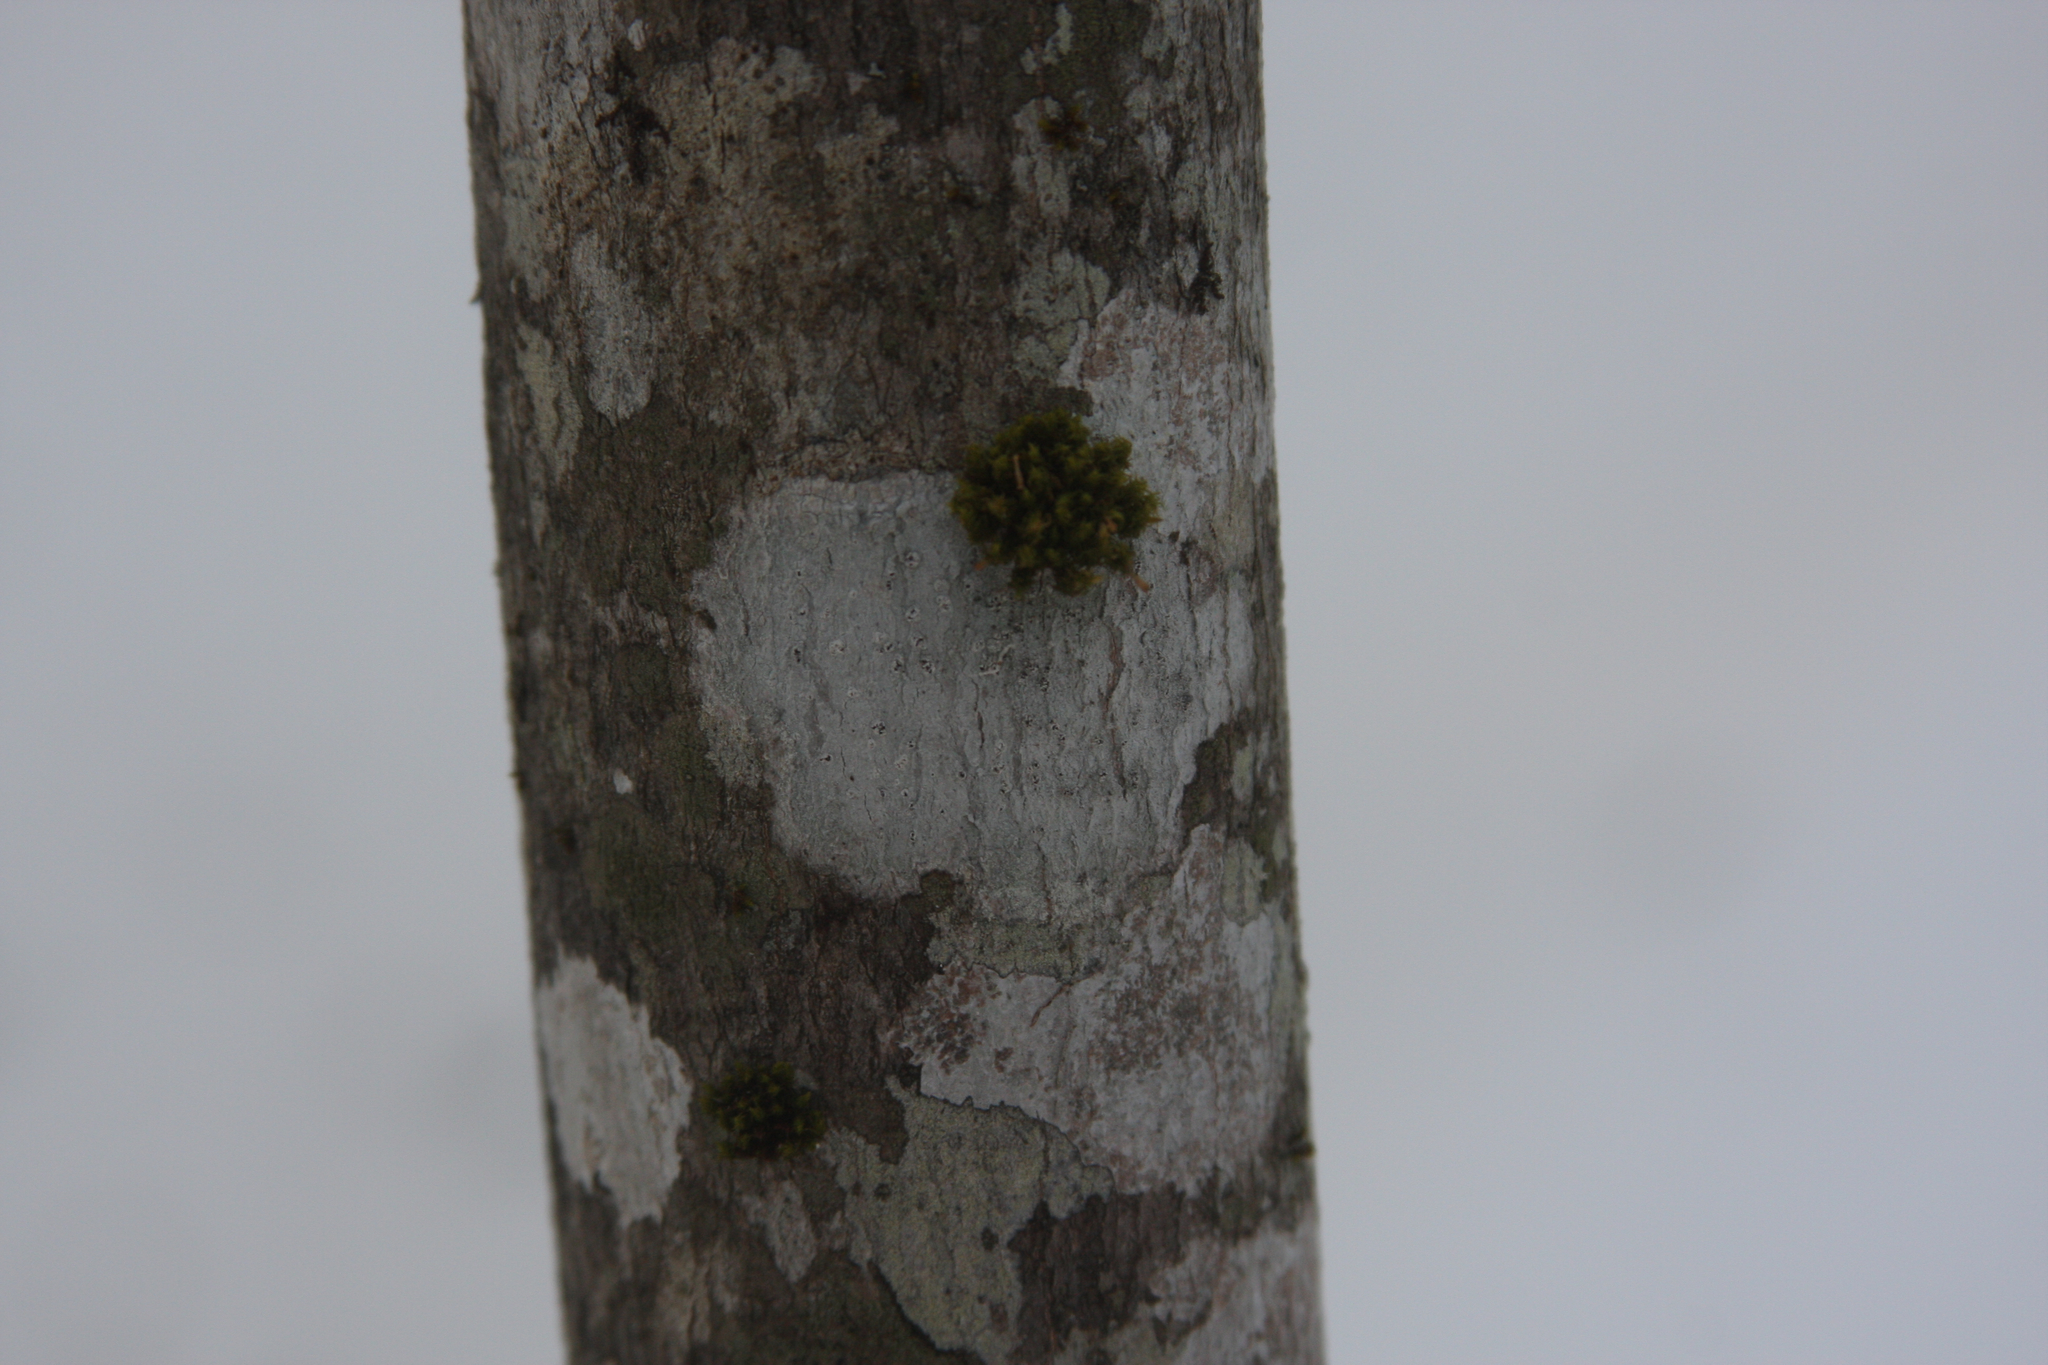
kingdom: Plantae
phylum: Bryophyta
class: Bryopsida
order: Orthotrichales
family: Orthotrichaceae
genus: Ulota
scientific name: Ulota crispa
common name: Crisped pincushion moss
